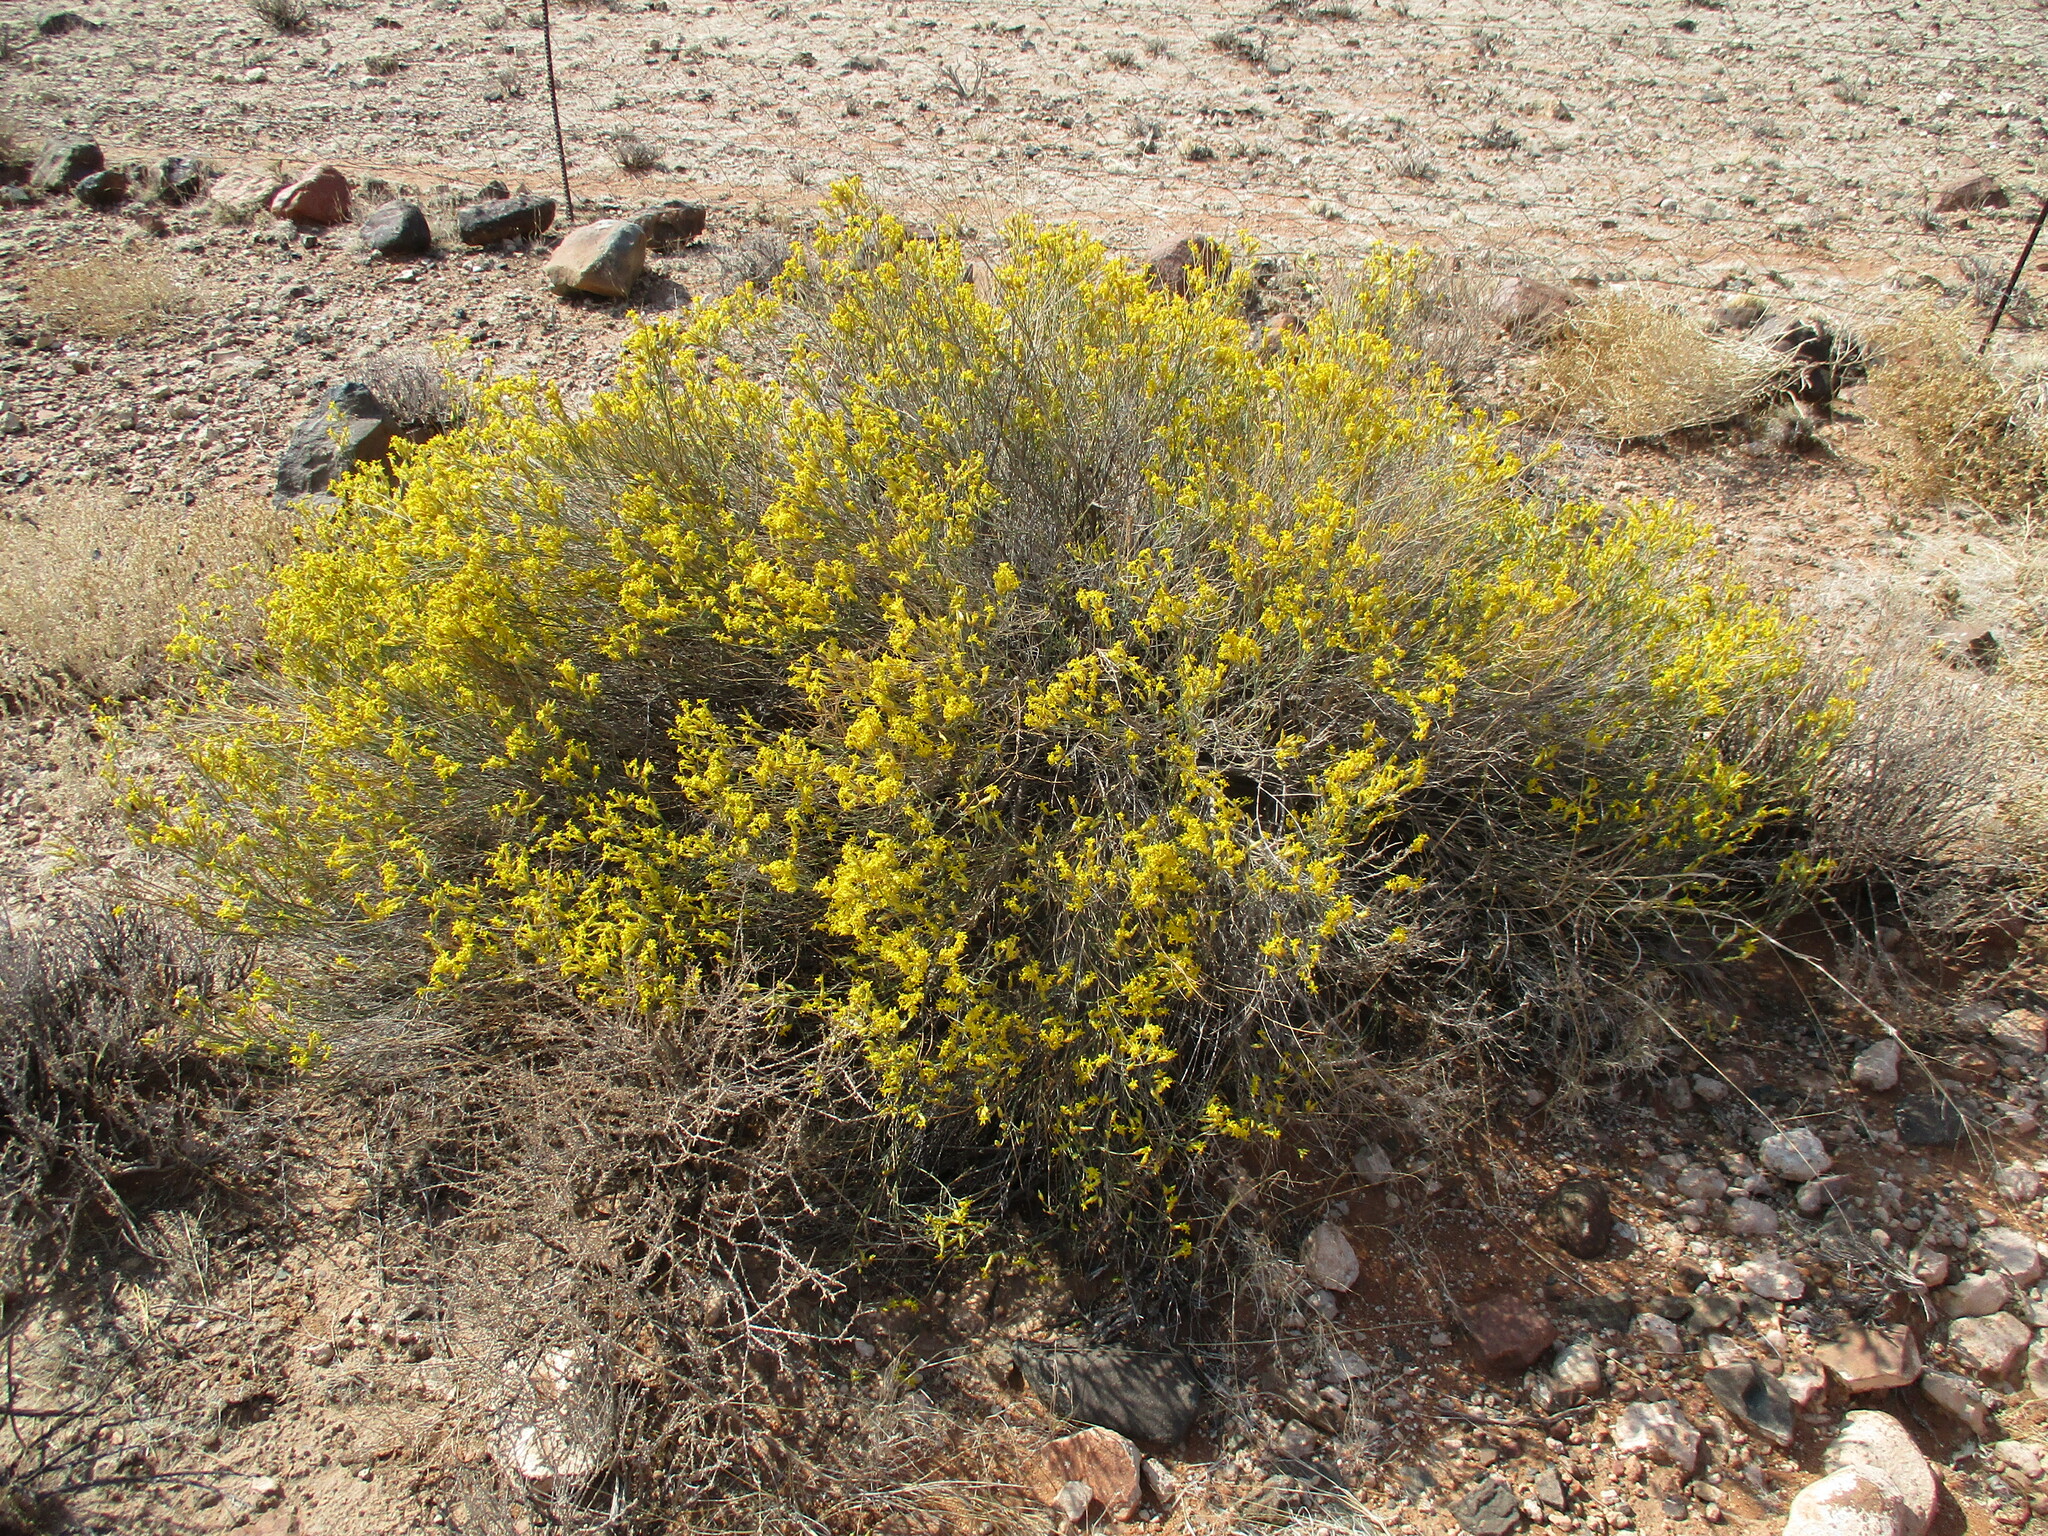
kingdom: Plantae
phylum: Tracheophyta
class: Magnoliopsida
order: Malvales
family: Thymelaeaceae
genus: Gnidia
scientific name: Gnidia polycephala
